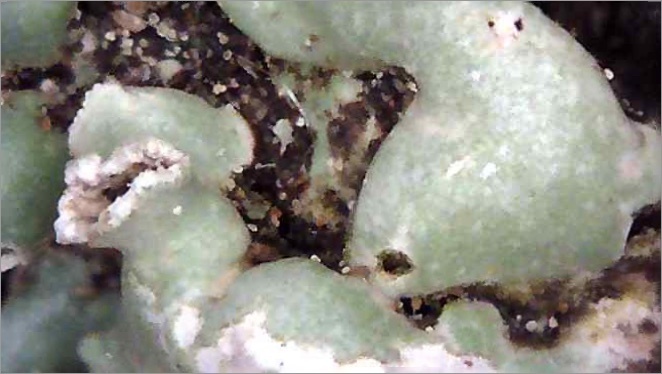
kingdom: Fungi
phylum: Ascomycota
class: Lecanoromycetes
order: Lecanorales
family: Parmeliaceae
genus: Menegazzia
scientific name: Menegazzia subsimilis
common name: Tree flute lichen
